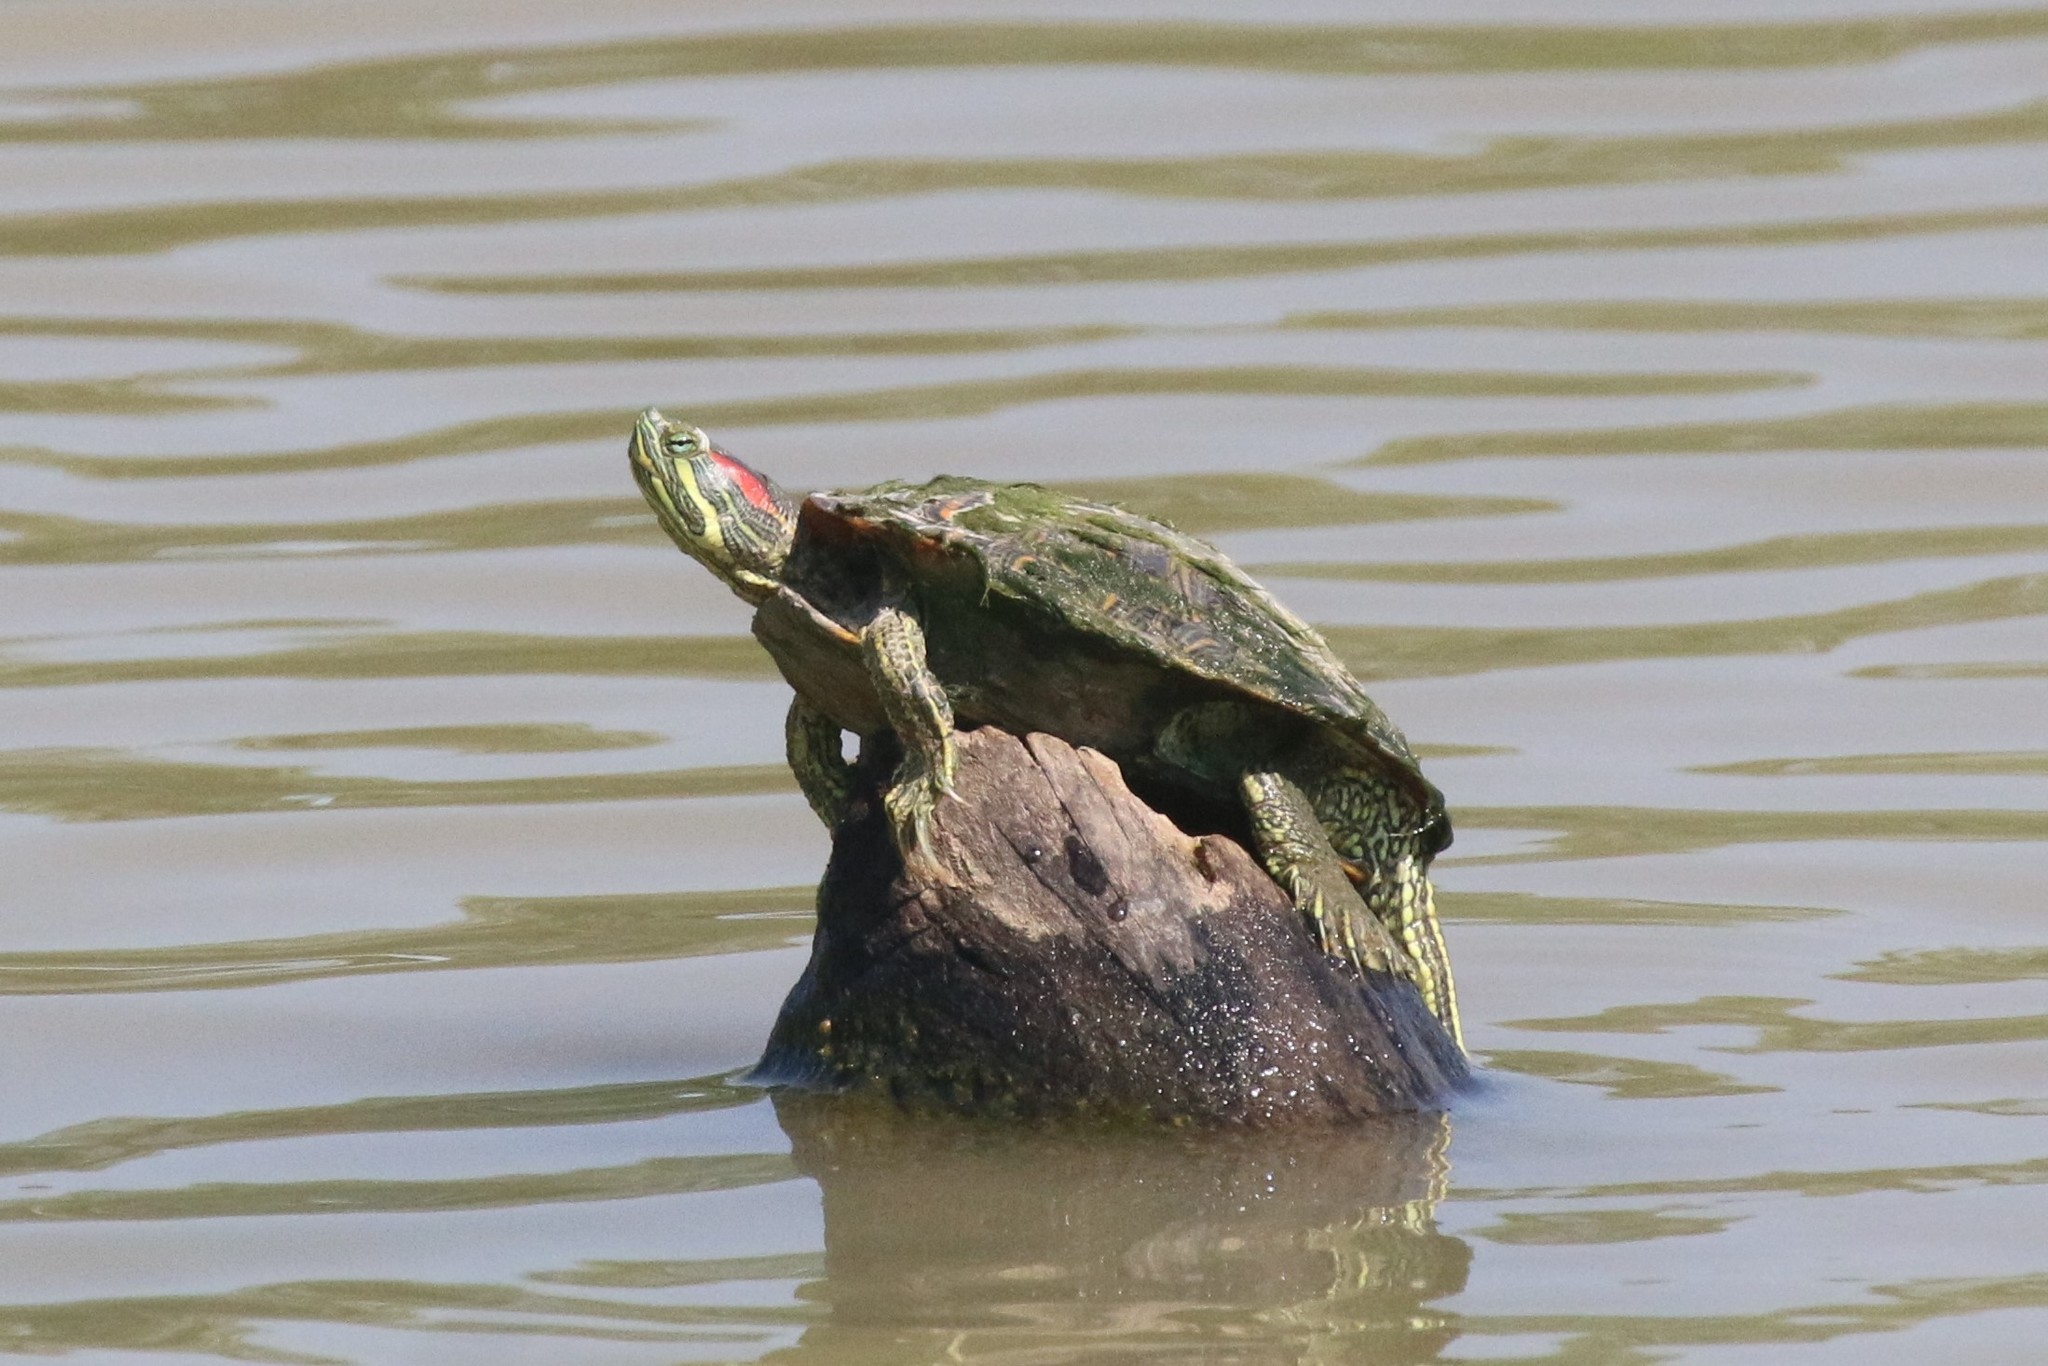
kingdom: Animalia
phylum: Chordata
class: Testudines
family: Emydidae
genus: Trachemys
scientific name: Trachemys scripta
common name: Slider
